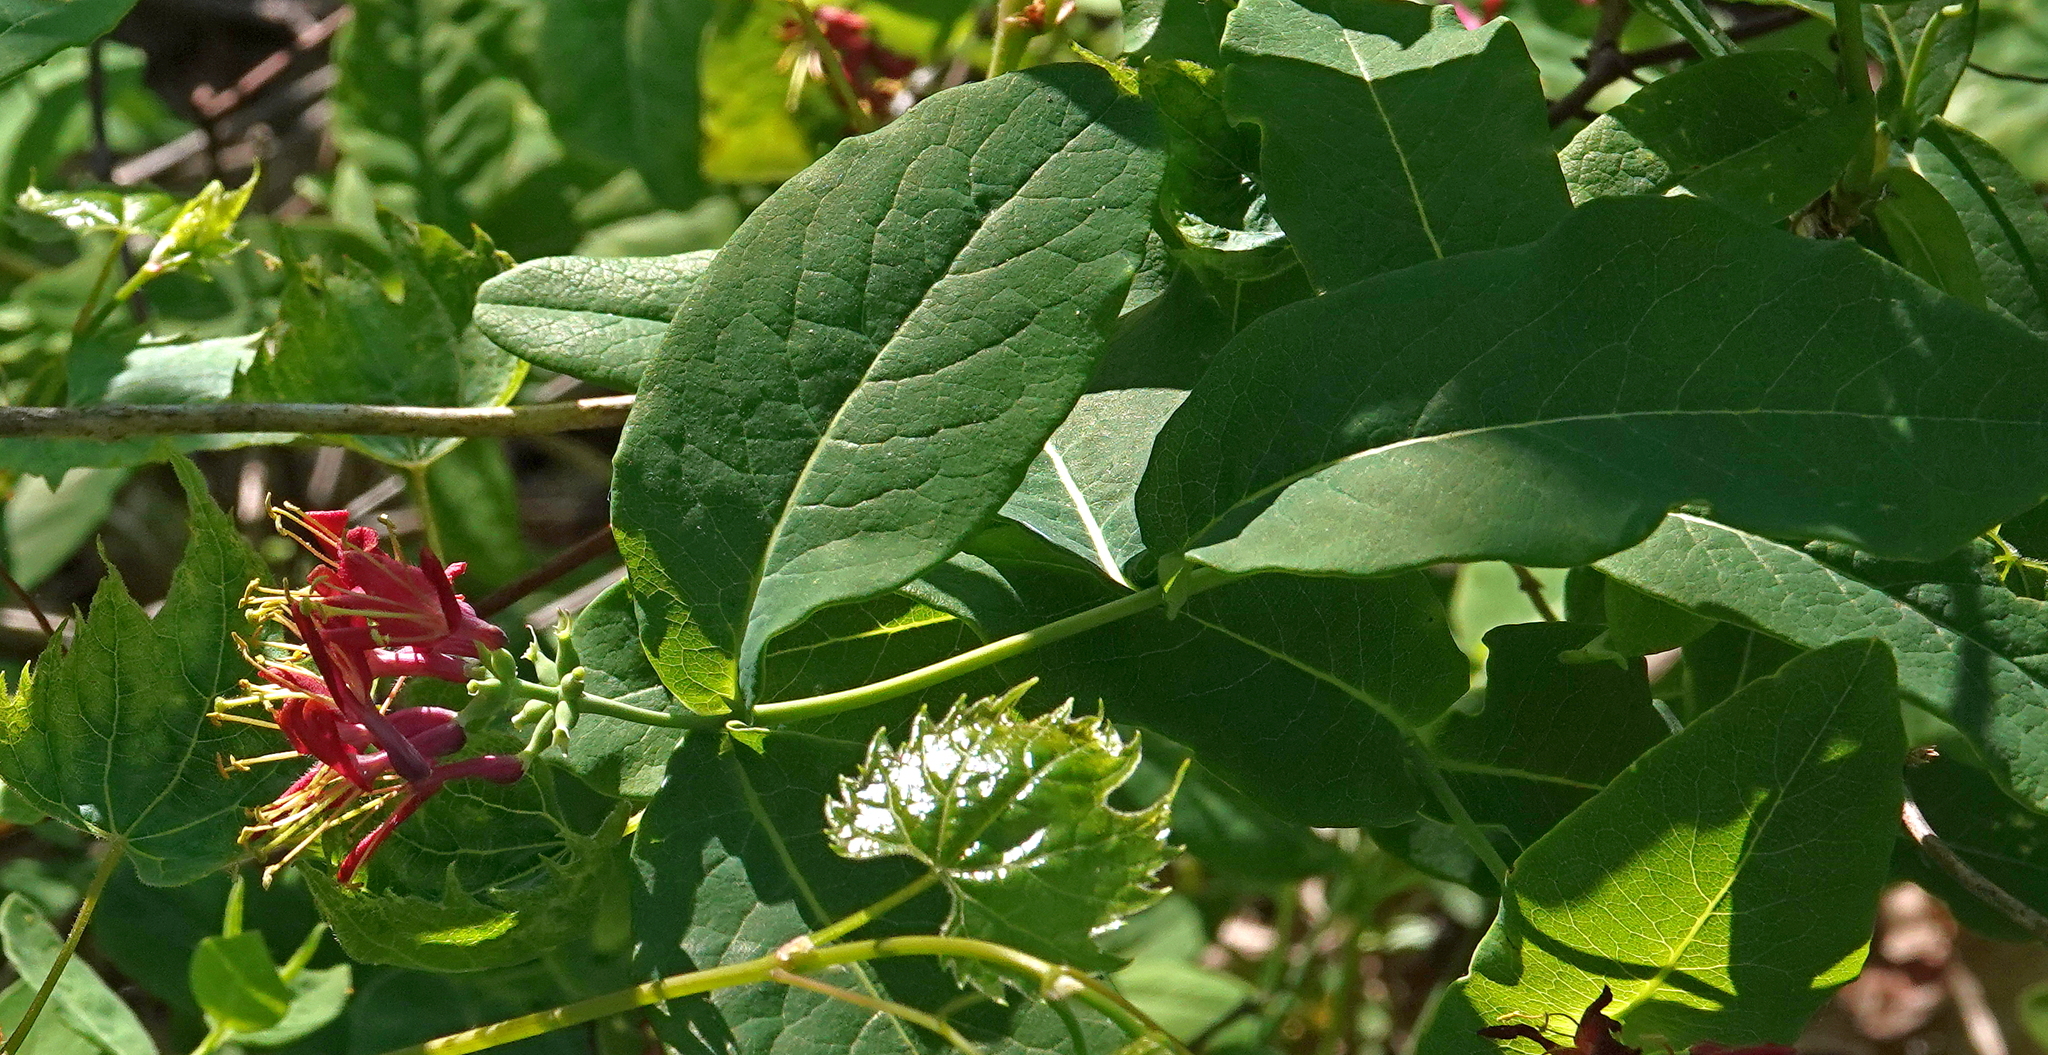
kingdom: Plantae
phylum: Tracheophyta
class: Magnoliopsida
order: Dipsacales
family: Caprifoliaceae
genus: Lonicera
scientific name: Lonicera dioica
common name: Limber honeysuckle
